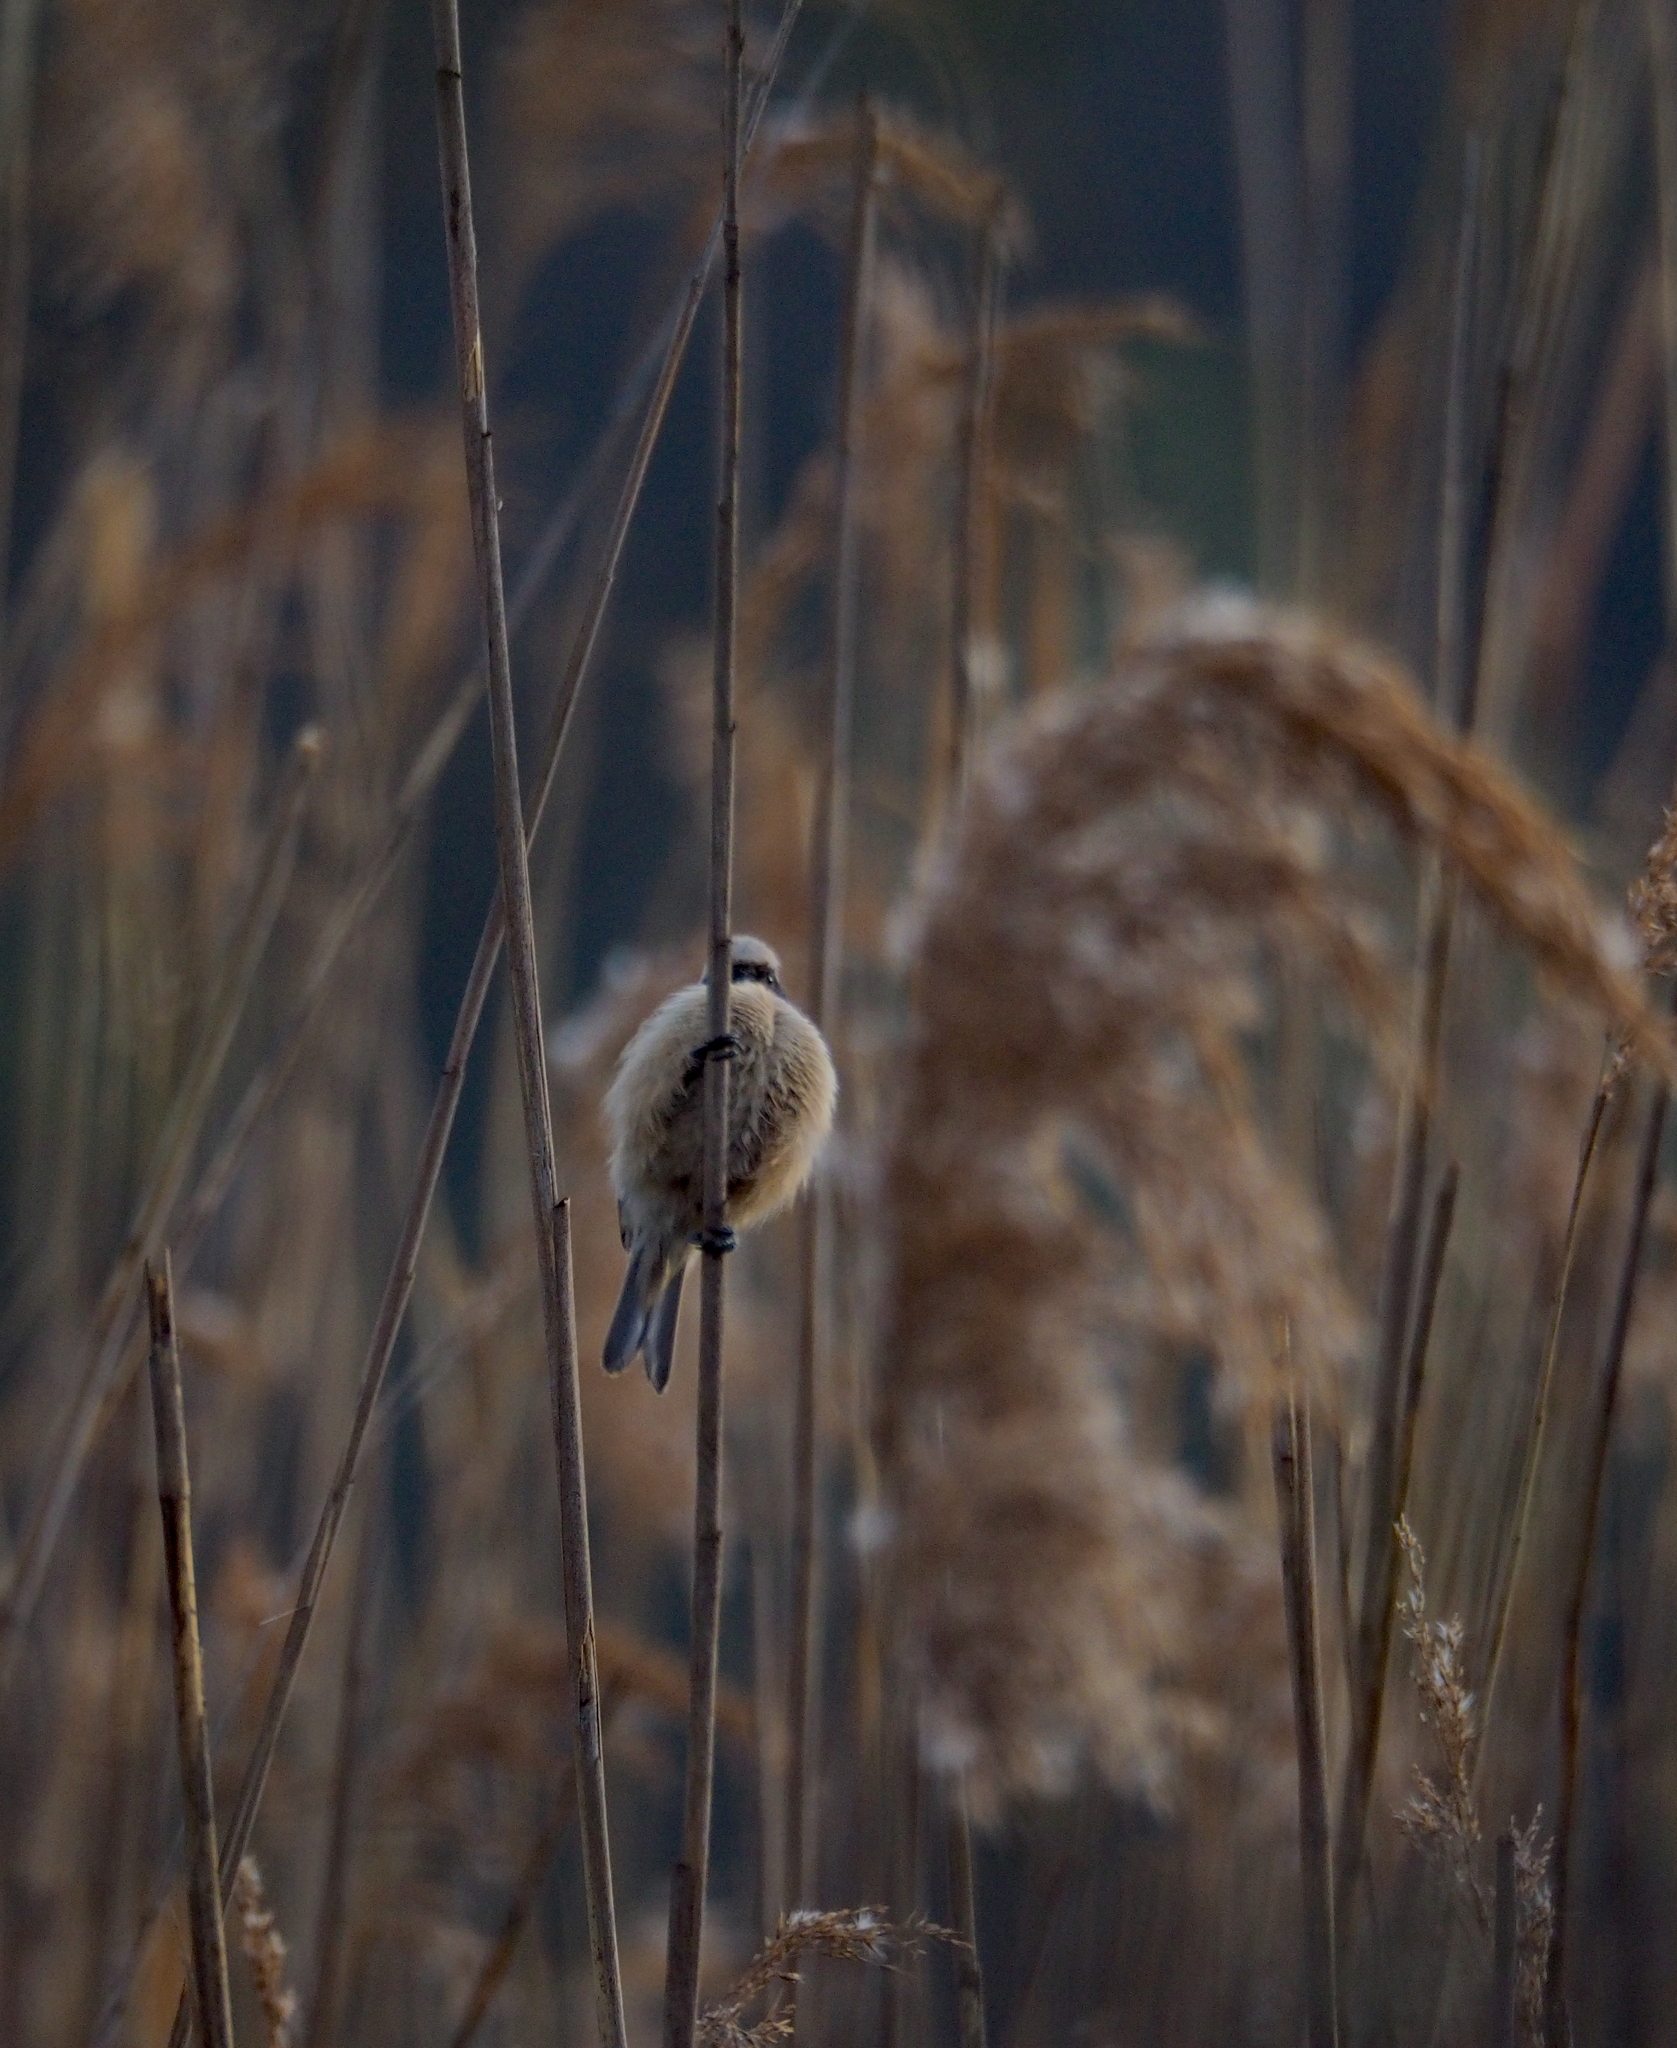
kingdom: Animalia
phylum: Chordata
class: Aves
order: Passeriformes
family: Remizidae
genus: Remiz
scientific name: Remiz pendulinus
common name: Eurasian penduline tit
